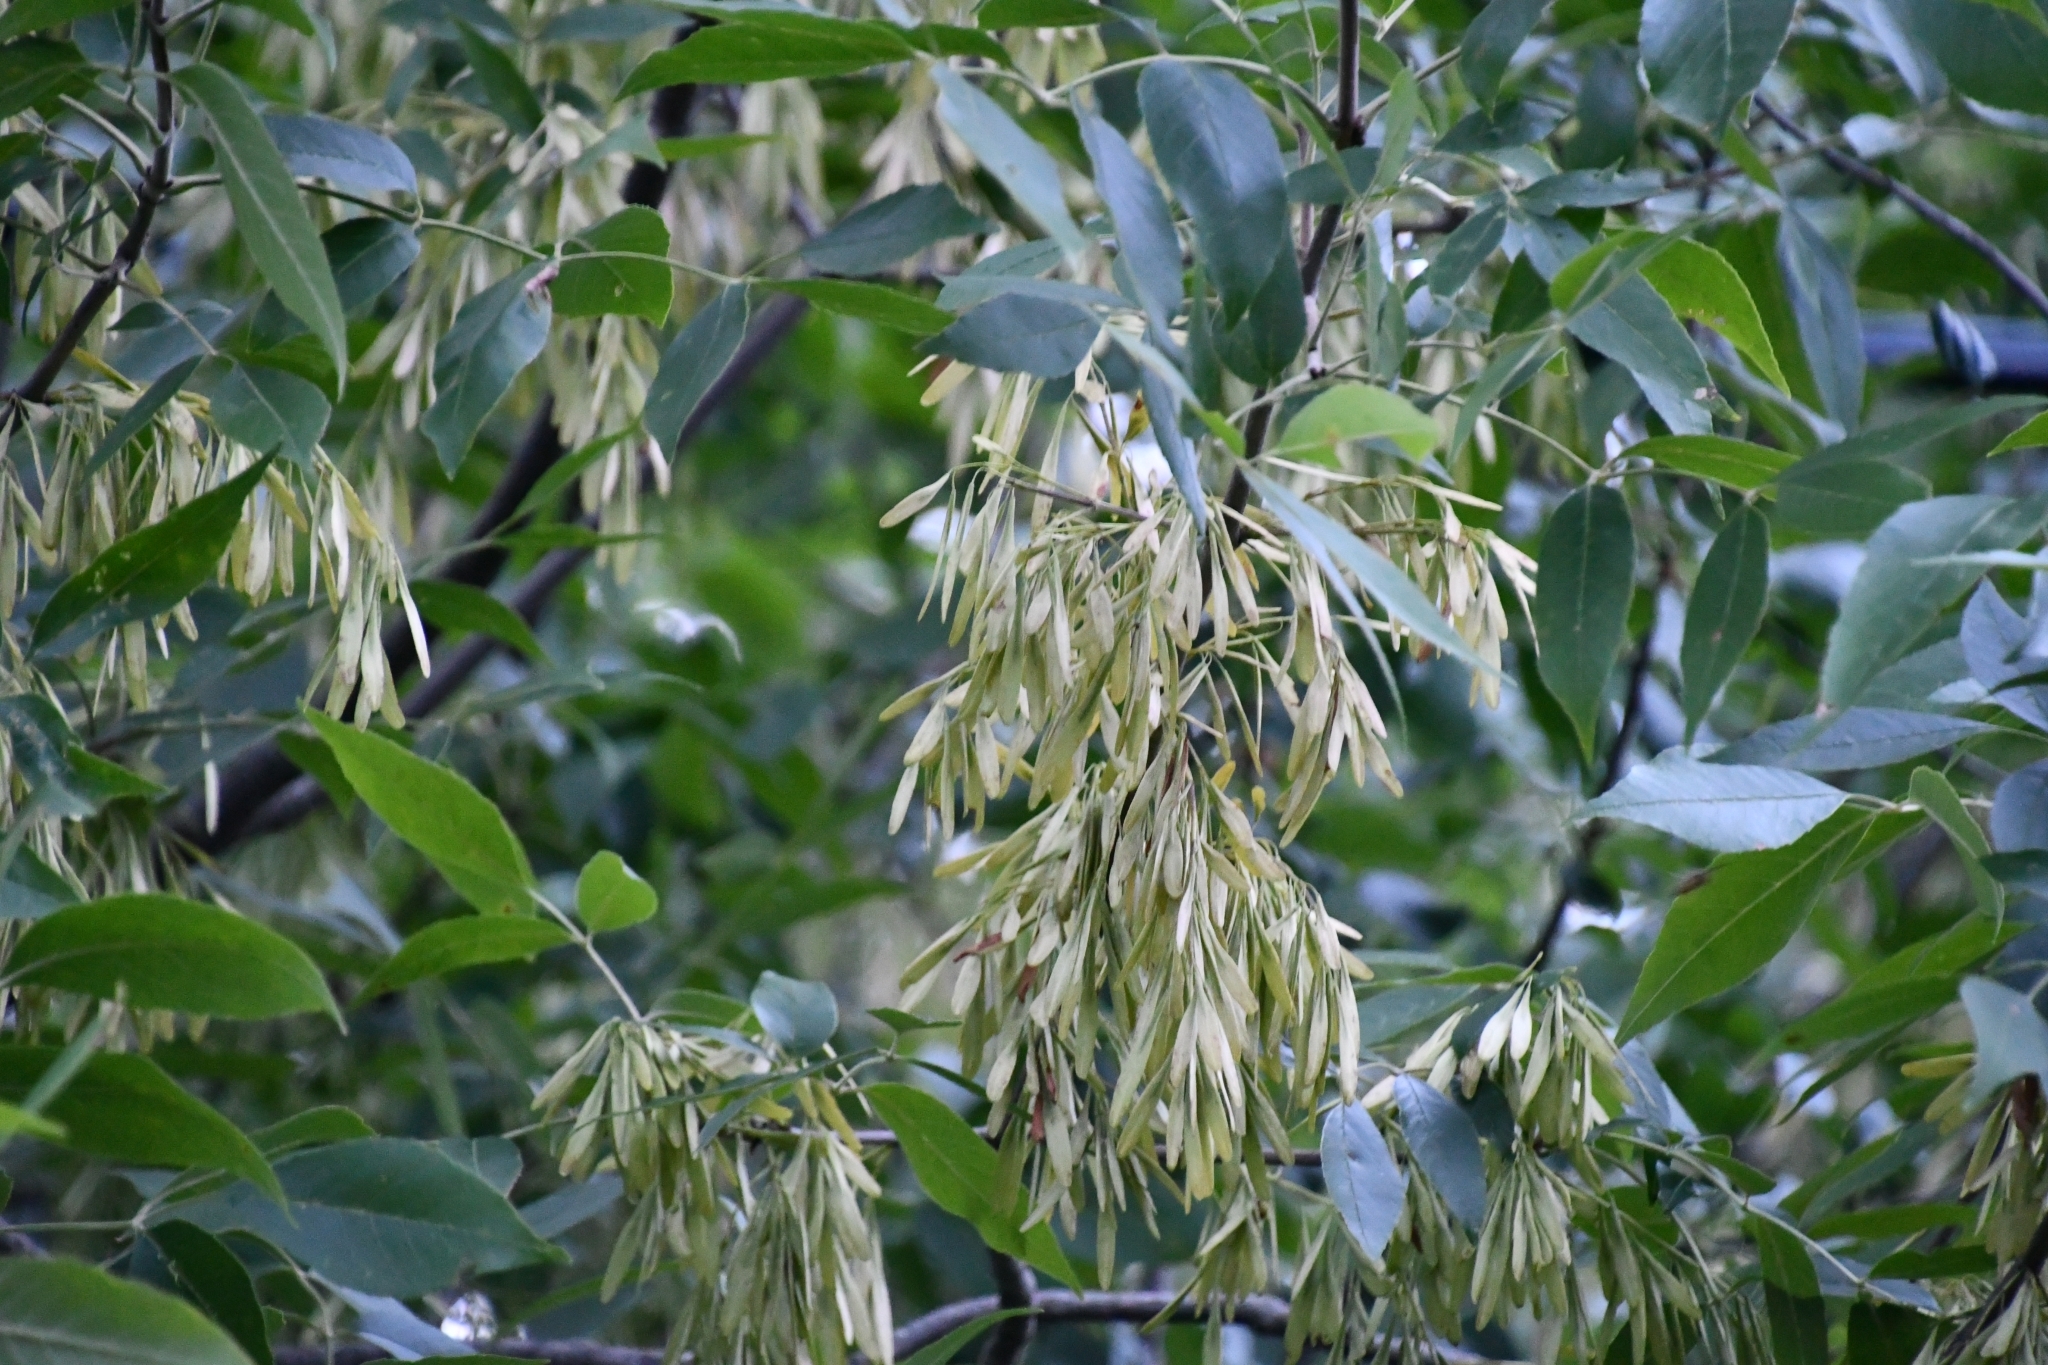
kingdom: Plantae
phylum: Tracheophyta
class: Magnoliopsida
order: Lamiales
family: Oleaceae
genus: Fraxinus
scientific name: Fraxinus pennsylvanica
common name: Green ash
